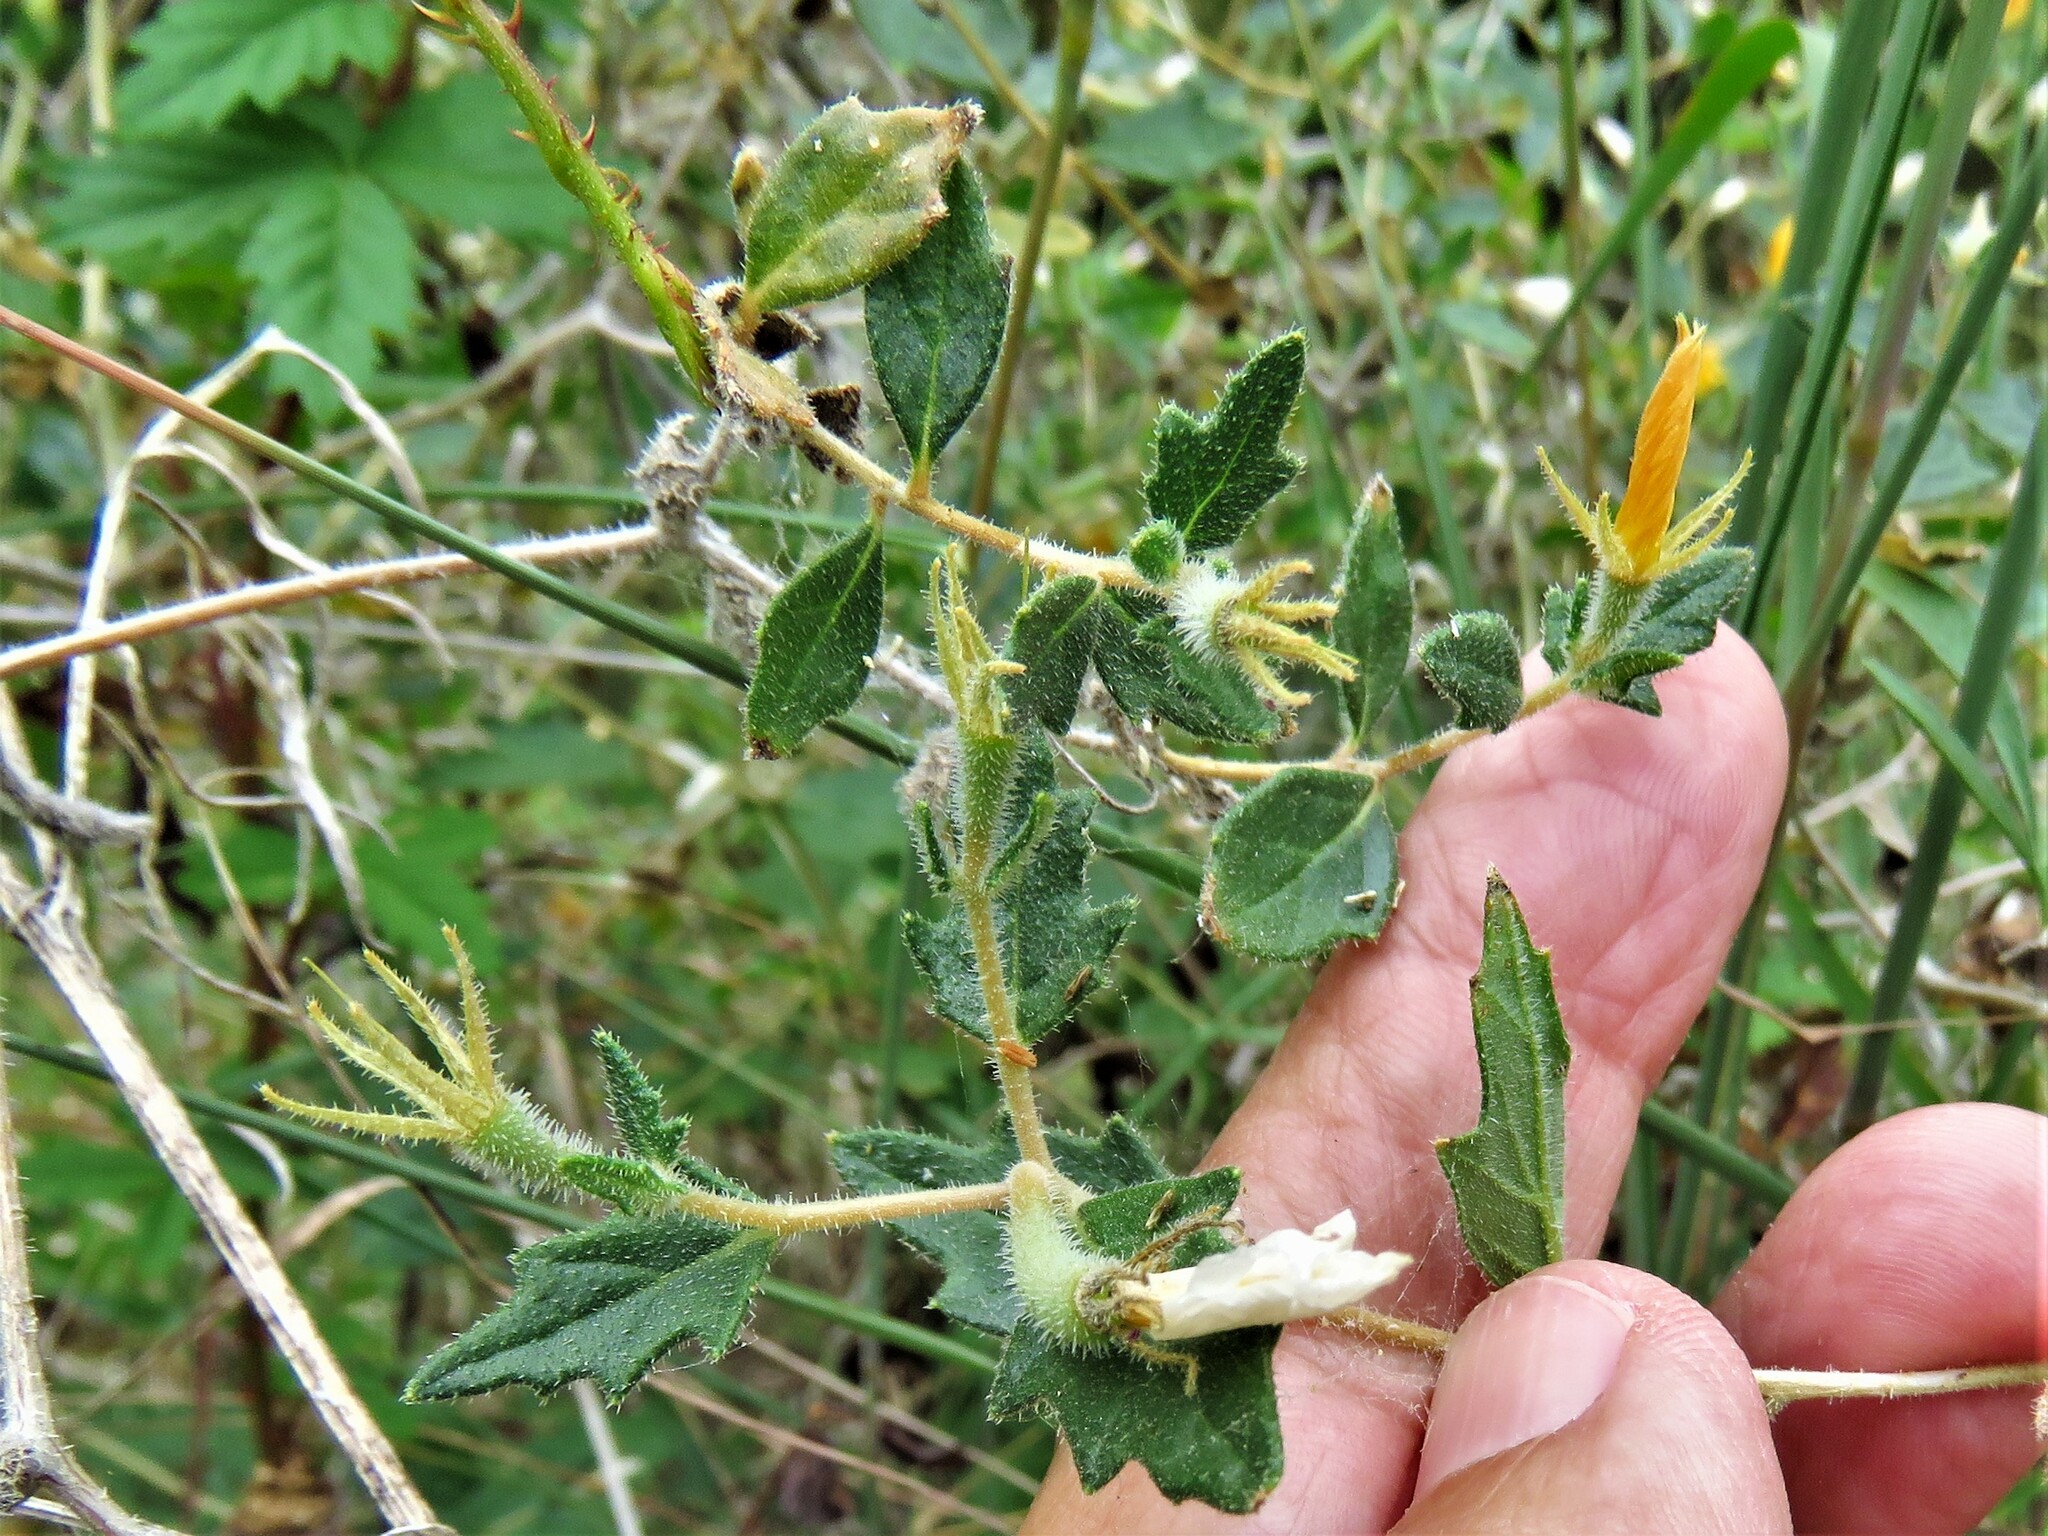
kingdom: Plantae
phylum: Tracheophyta
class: Magnoliopsida
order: Cornales
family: Loasaceae
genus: Mentzelia
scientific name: Mentzelia oligosperma
